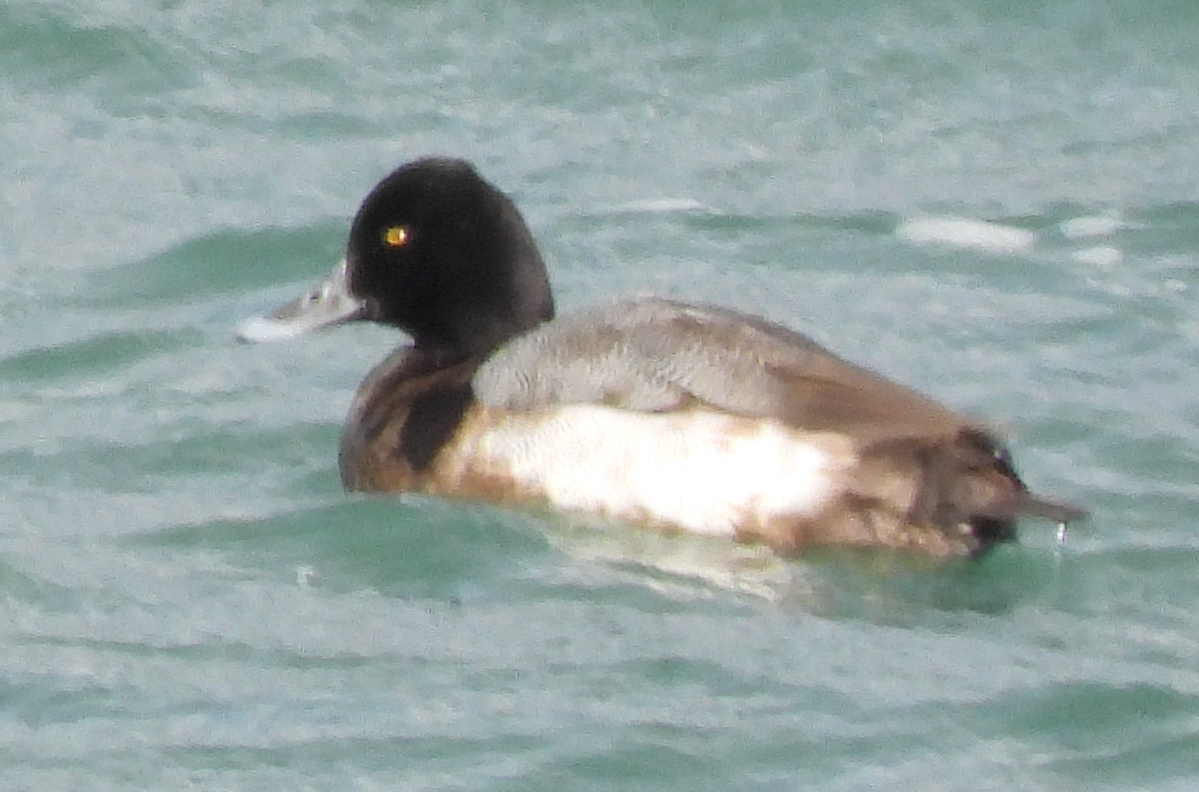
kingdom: Animalia
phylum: Chordata
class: Aves
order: Anseriformes
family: Anatidae
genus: Aythya
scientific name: Aythya affinis
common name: Lesser scaup
